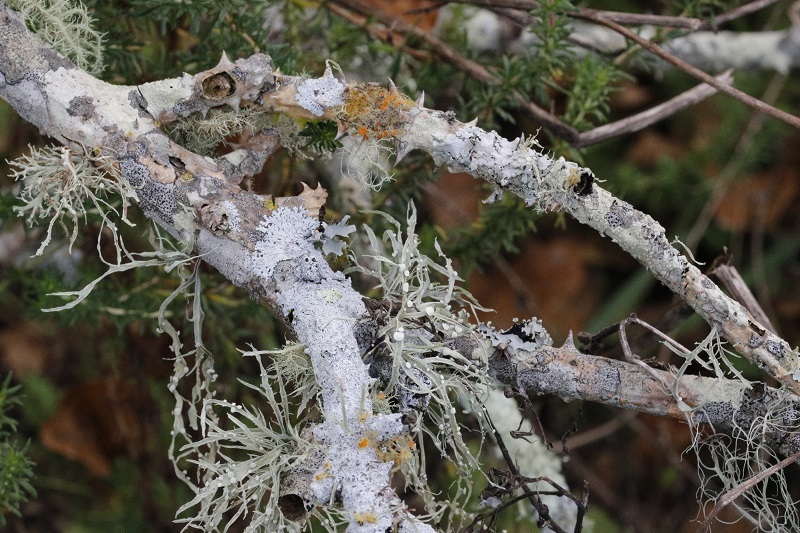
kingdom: Fungi
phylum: Ascomycota
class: Lecanoromycetes
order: Lecanorales
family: Ramalinaceae
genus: Ramalina
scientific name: Ramalina celastri
